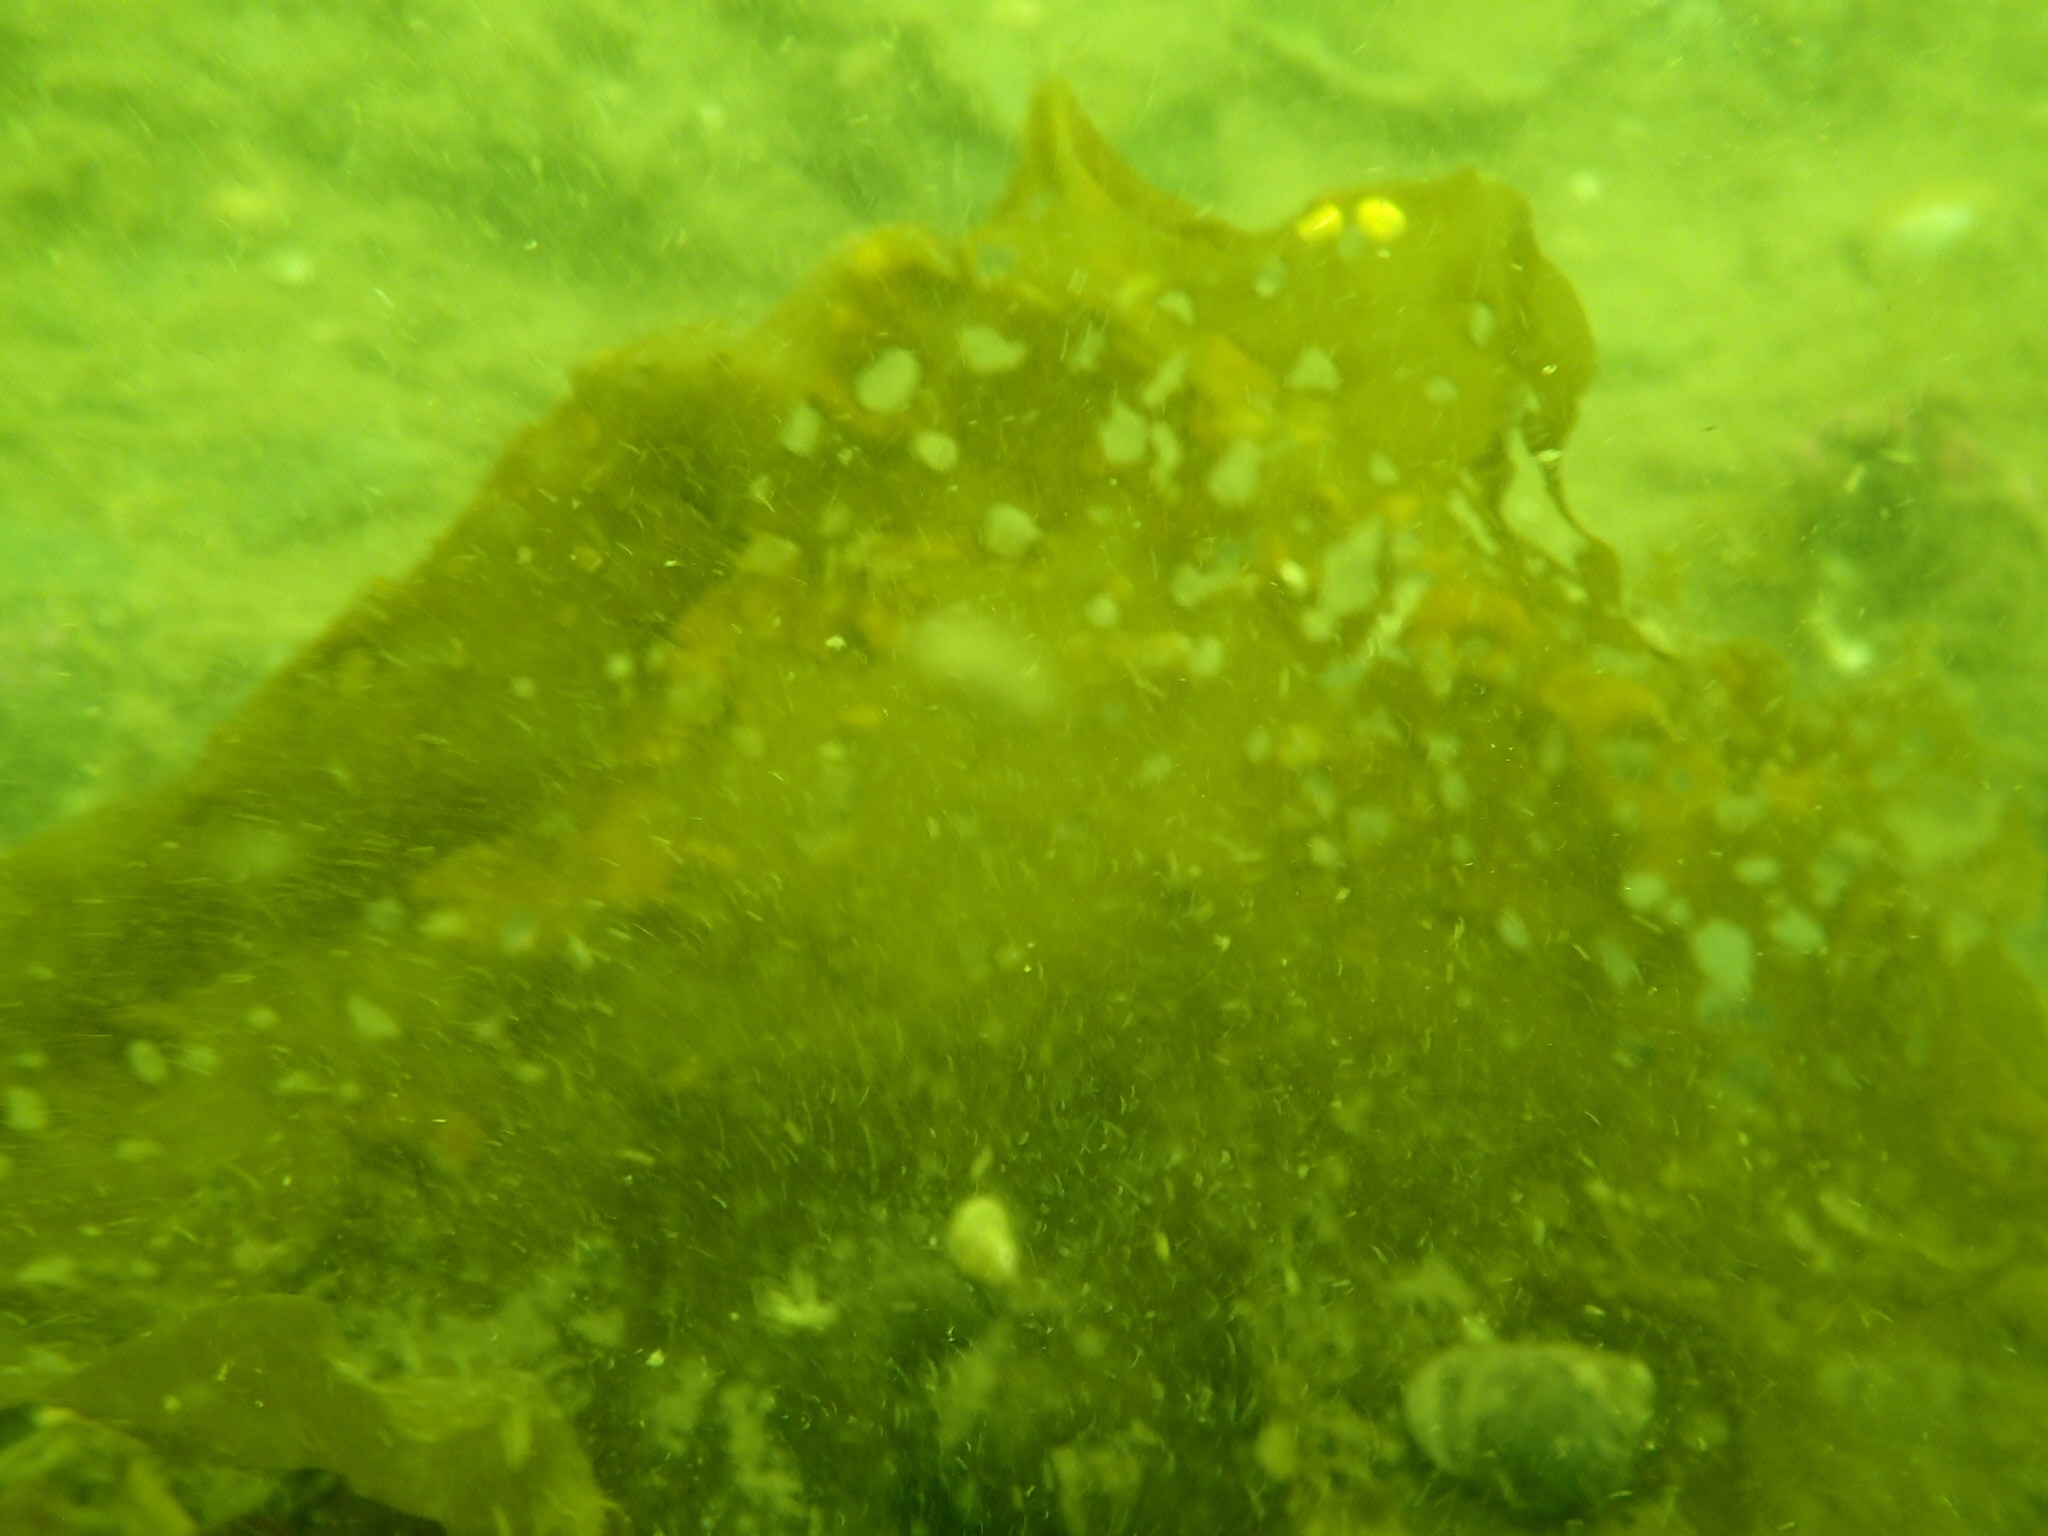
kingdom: Chromista
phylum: Ochrophyta
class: Phaeophyceae
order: Laminariales
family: Costariaceae
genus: Agarum
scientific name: Agarum clathratum
